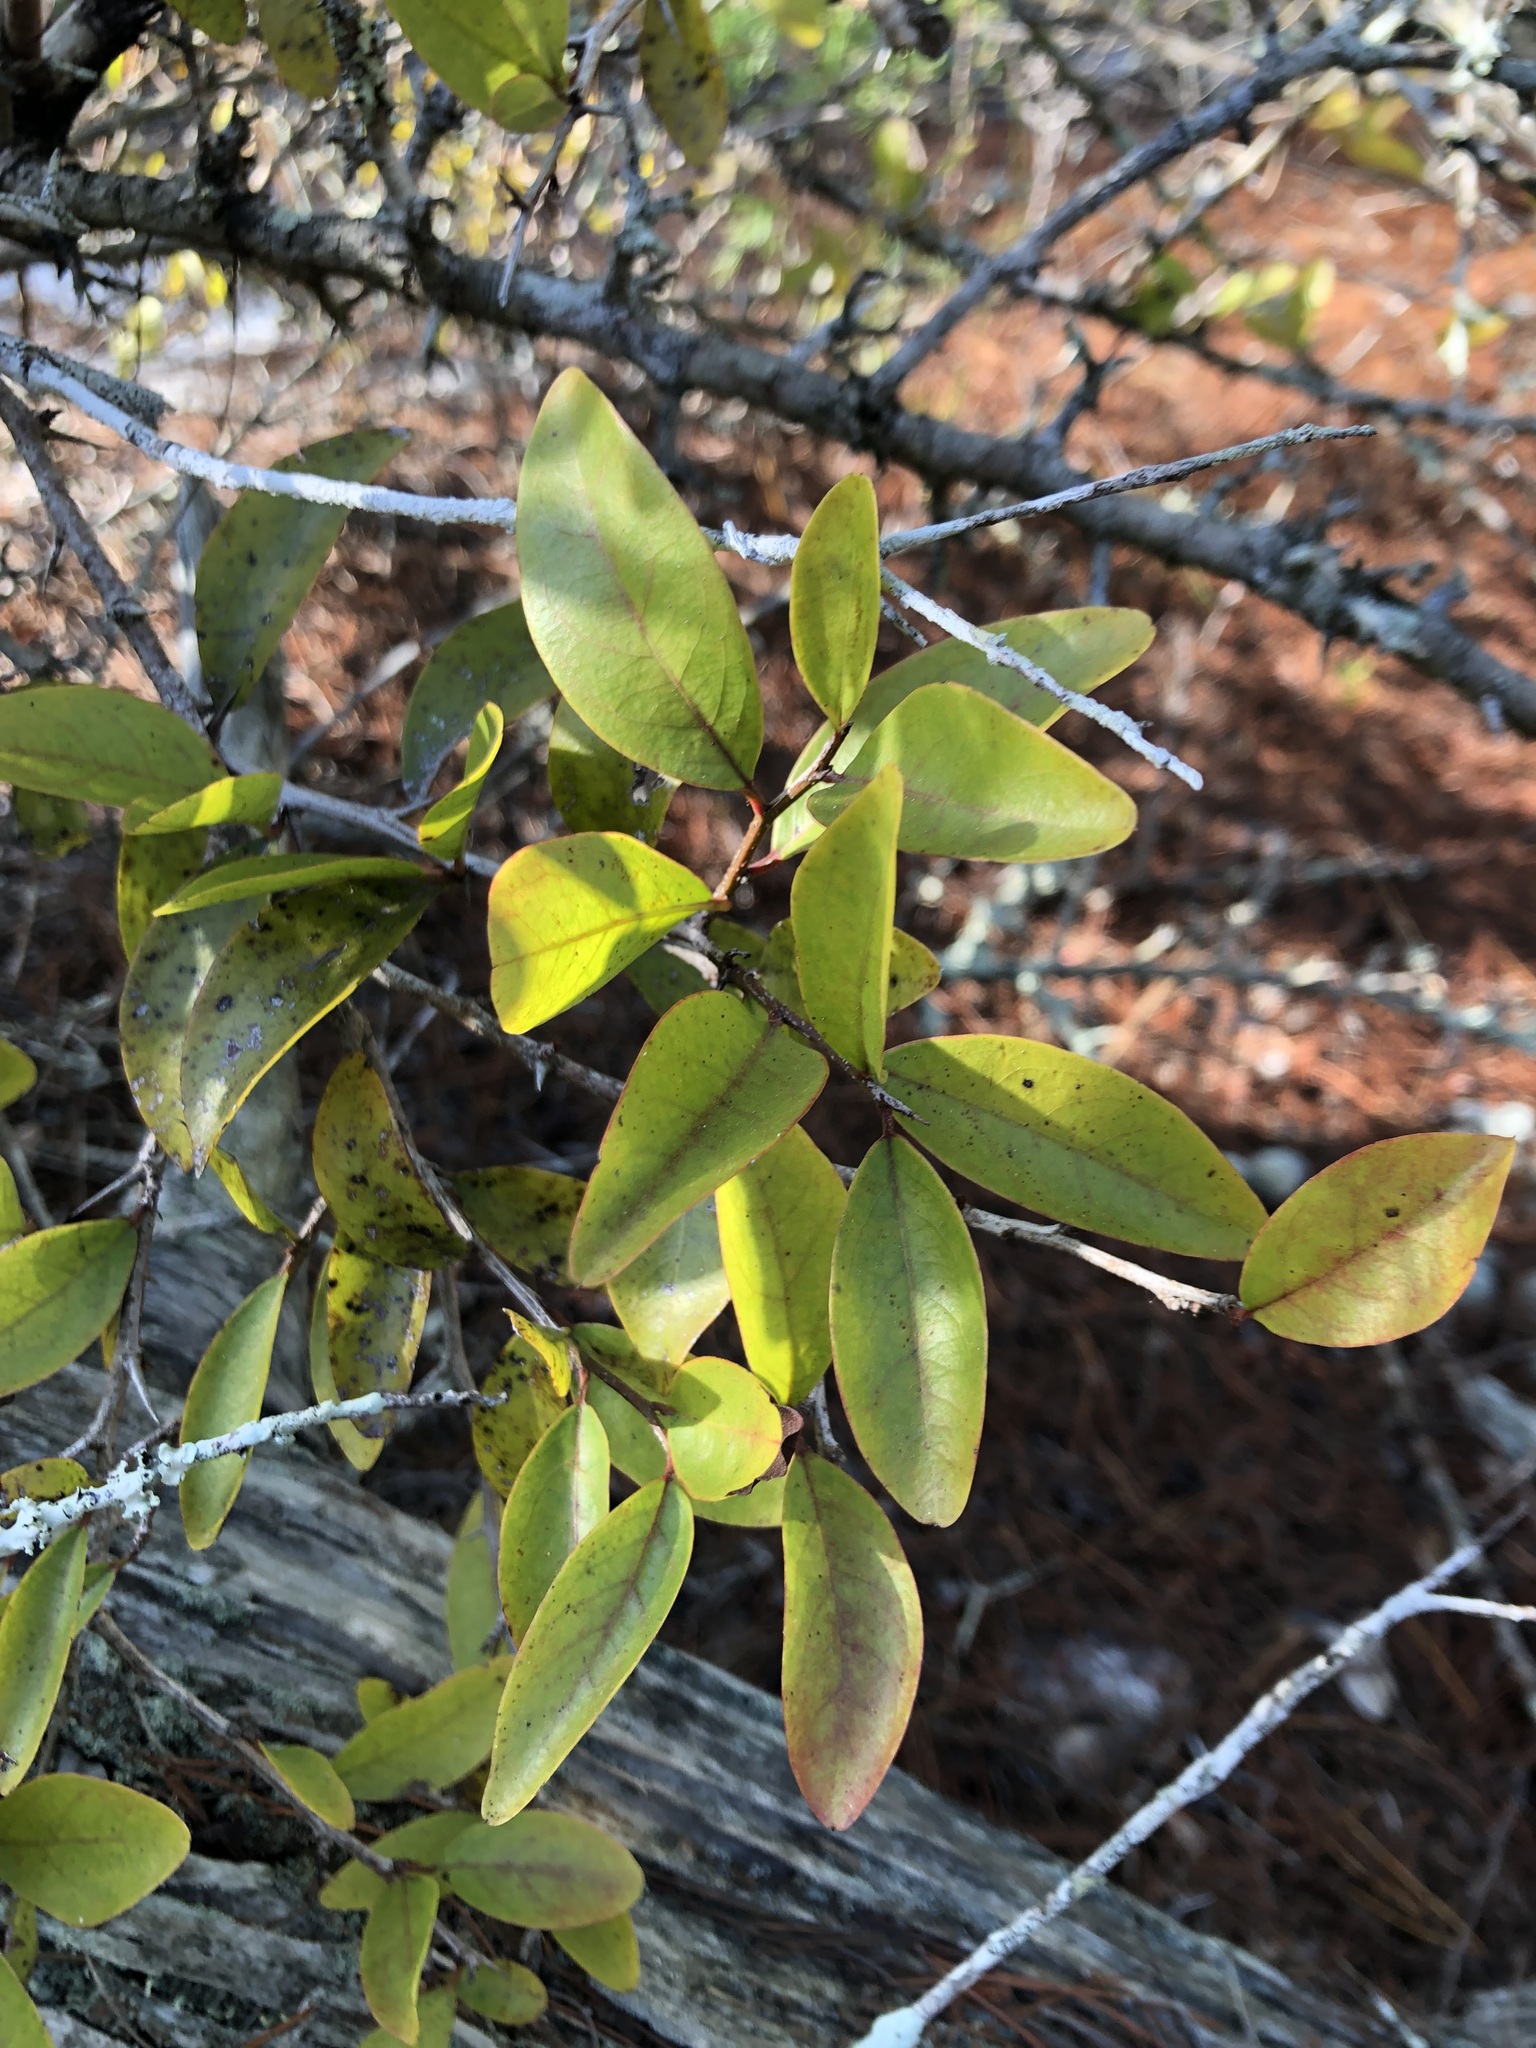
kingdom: Plantae
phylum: Tracheophyta
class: Magnoliopsida
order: Santalales
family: Ximeniaceae
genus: Ximenia
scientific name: Ximenia americana
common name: Tallowwood
